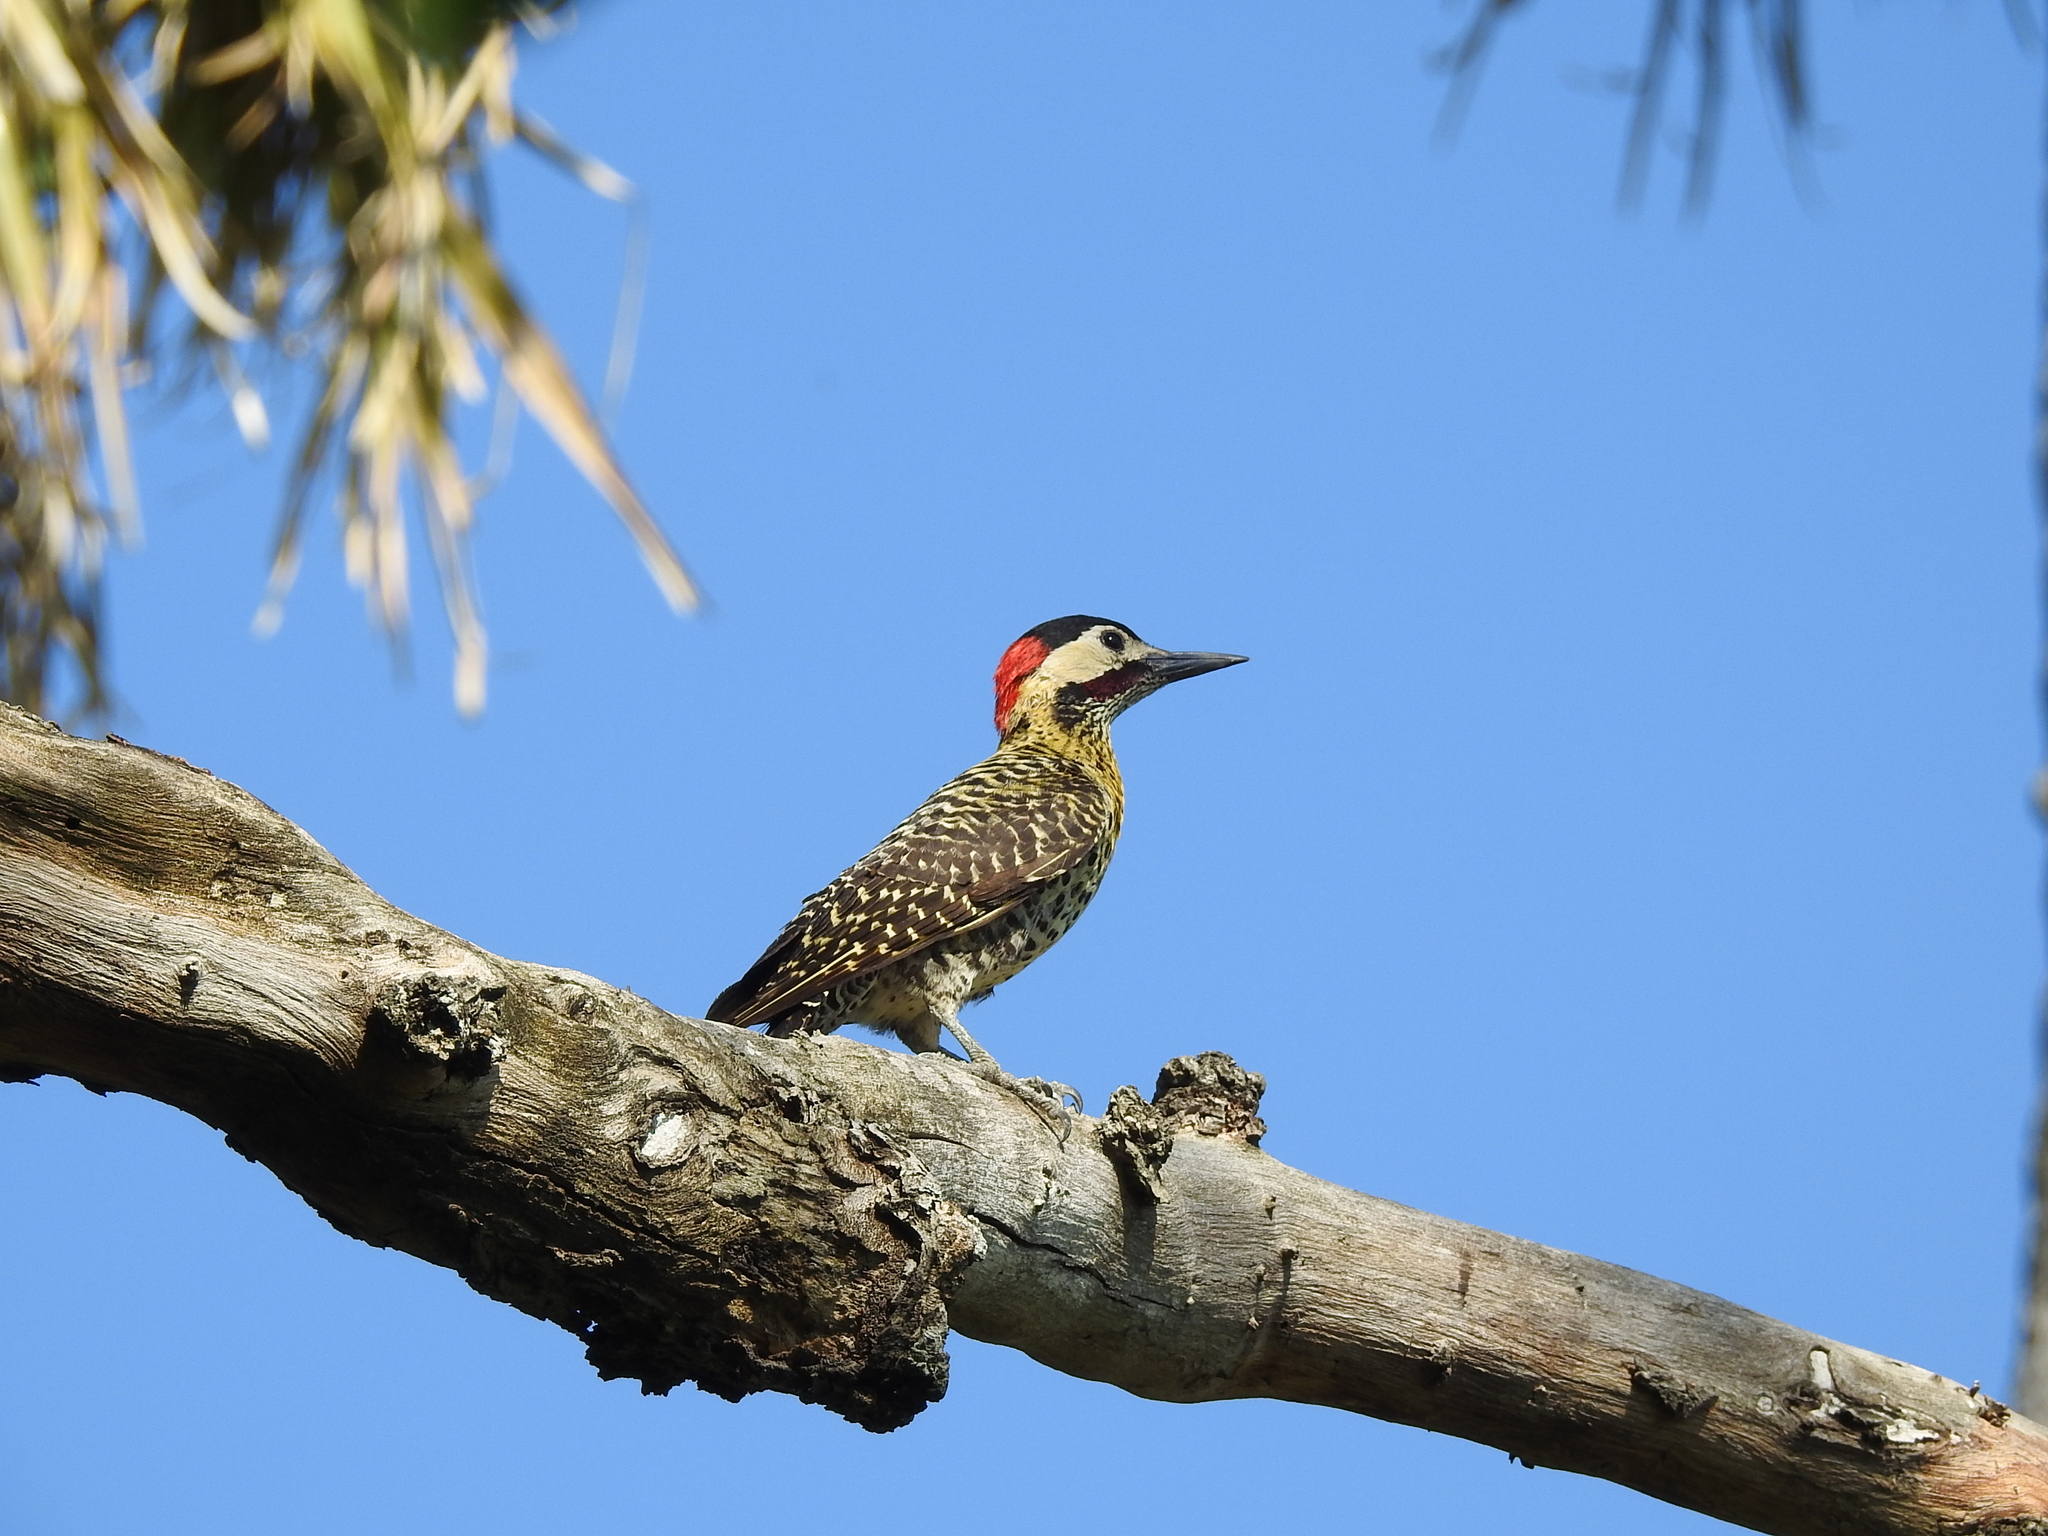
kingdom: Animalia
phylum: Chordata
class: Aves
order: Piciformes
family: Picidae
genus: Colaptes
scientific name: Colaptes melanochloros
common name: Green-barred woodpecker
